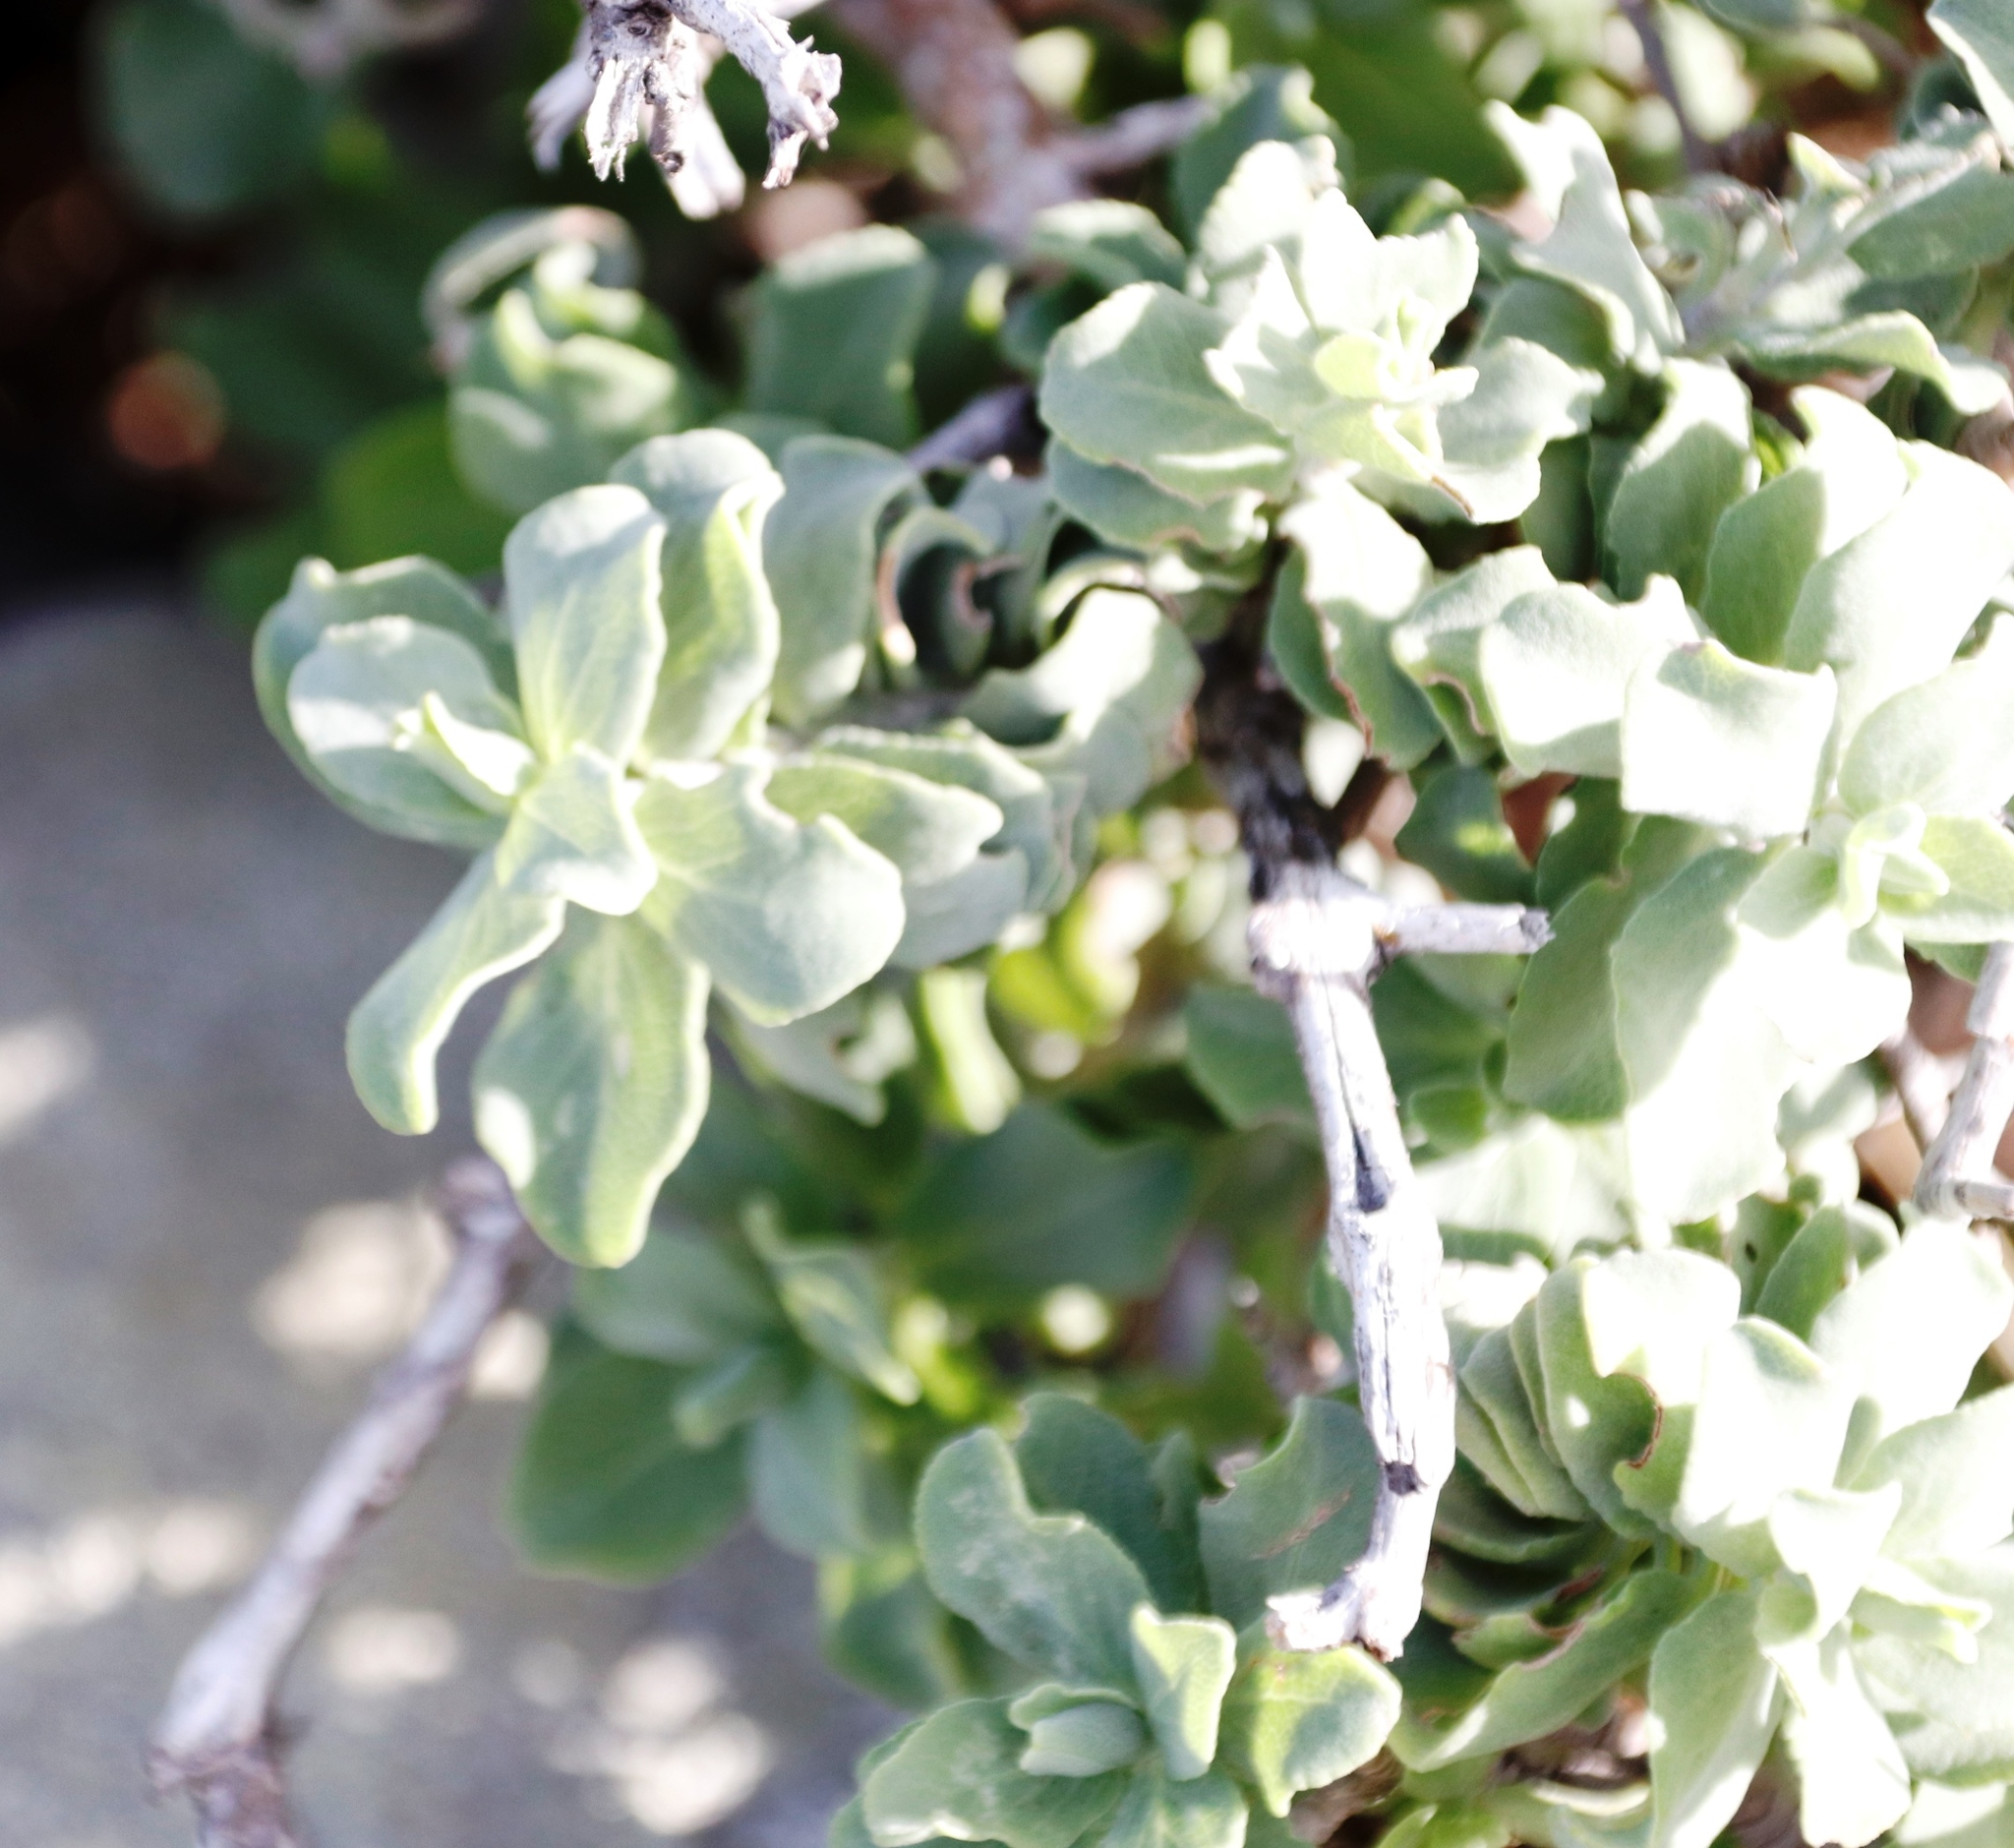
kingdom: Plantae
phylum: Tracheophyta
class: Magnoliopsida
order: Lamiales
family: Lamiaceae
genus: Salvia
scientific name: Salvia aurea
